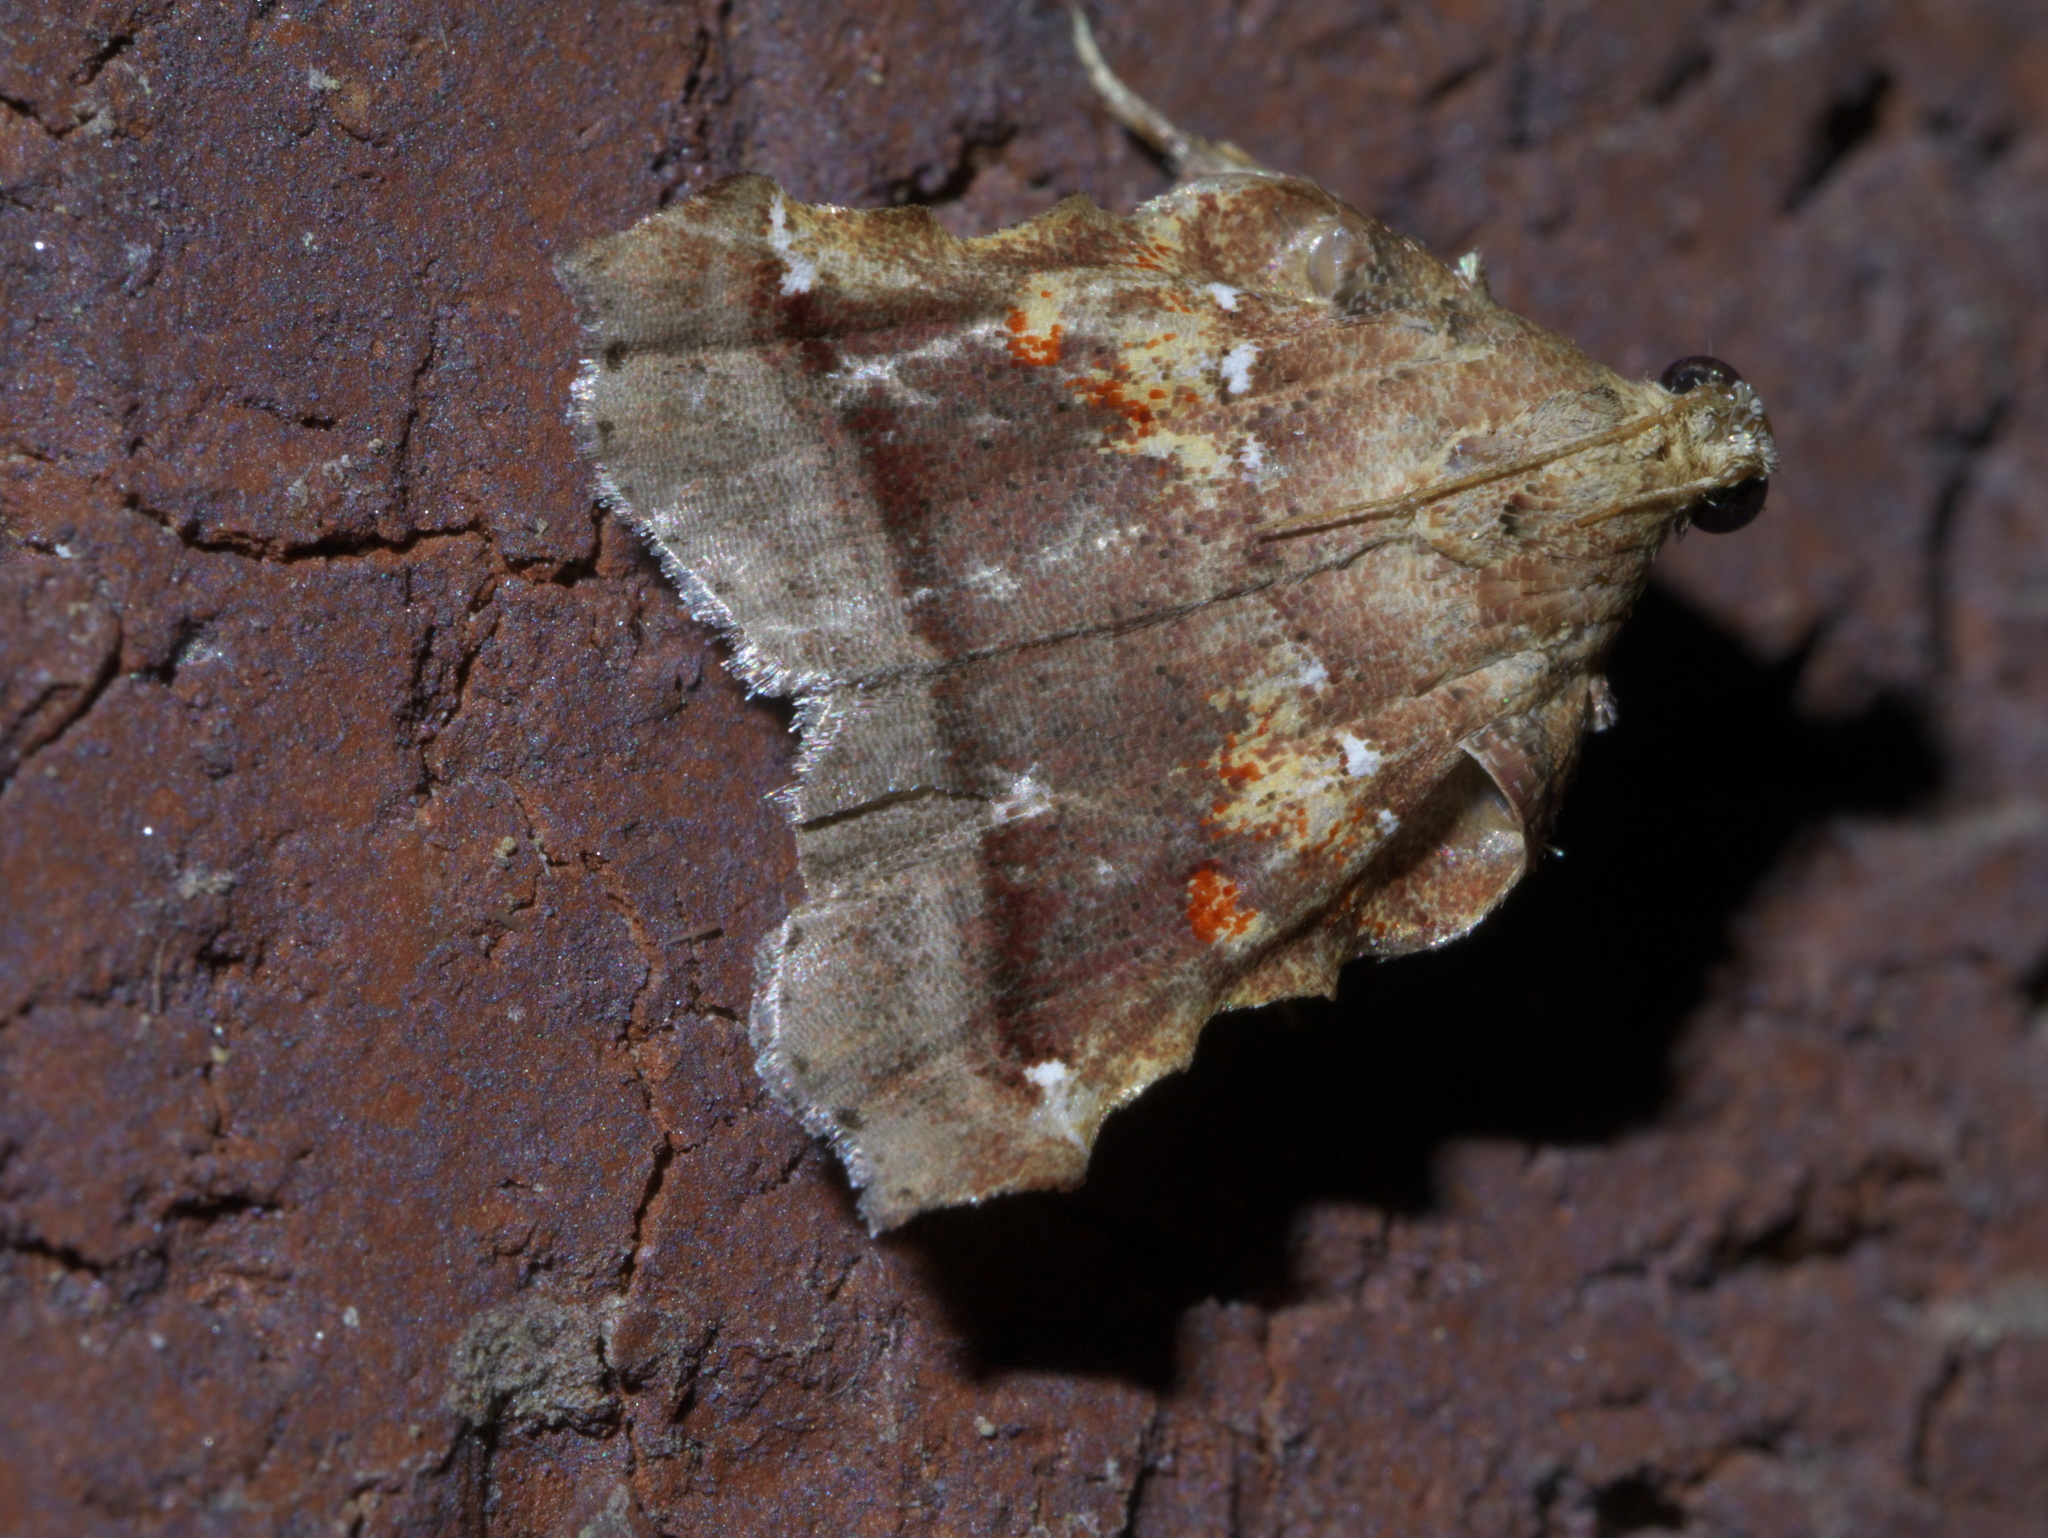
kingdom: Animalia
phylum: Arthropoda
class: Insecta
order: Lepidoptera
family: Pyralidae
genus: Clydonopteron
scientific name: Clydonopteron sacculana
